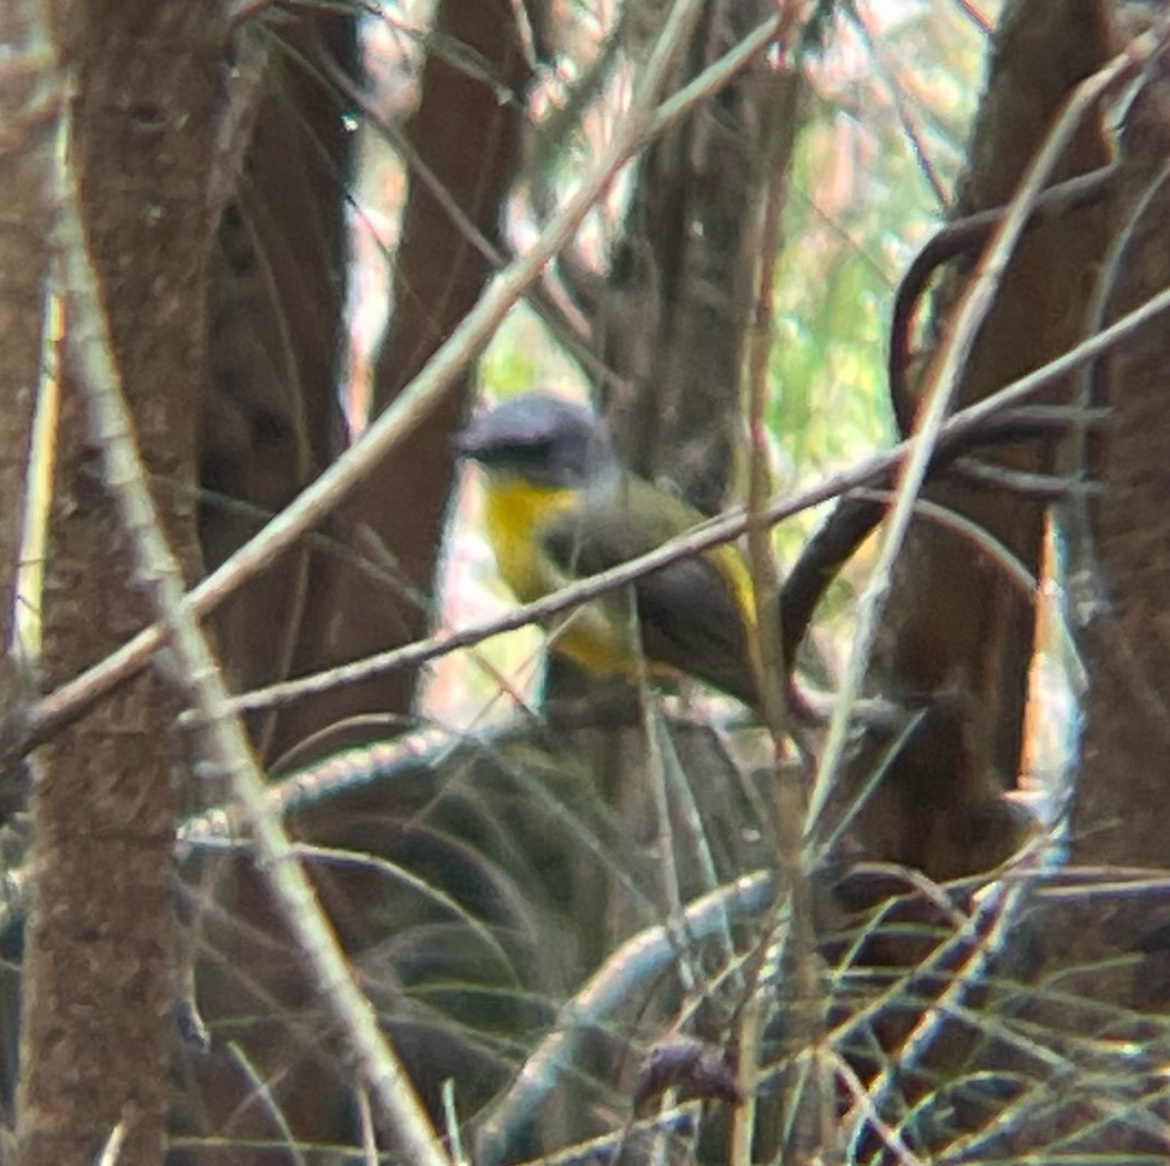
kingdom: Animalia
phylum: Chordata
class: Aves
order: Passeriformes
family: Petroicidae
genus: Eopsaltria
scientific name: Eopsaltria australis
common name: Eastern yellow robin
